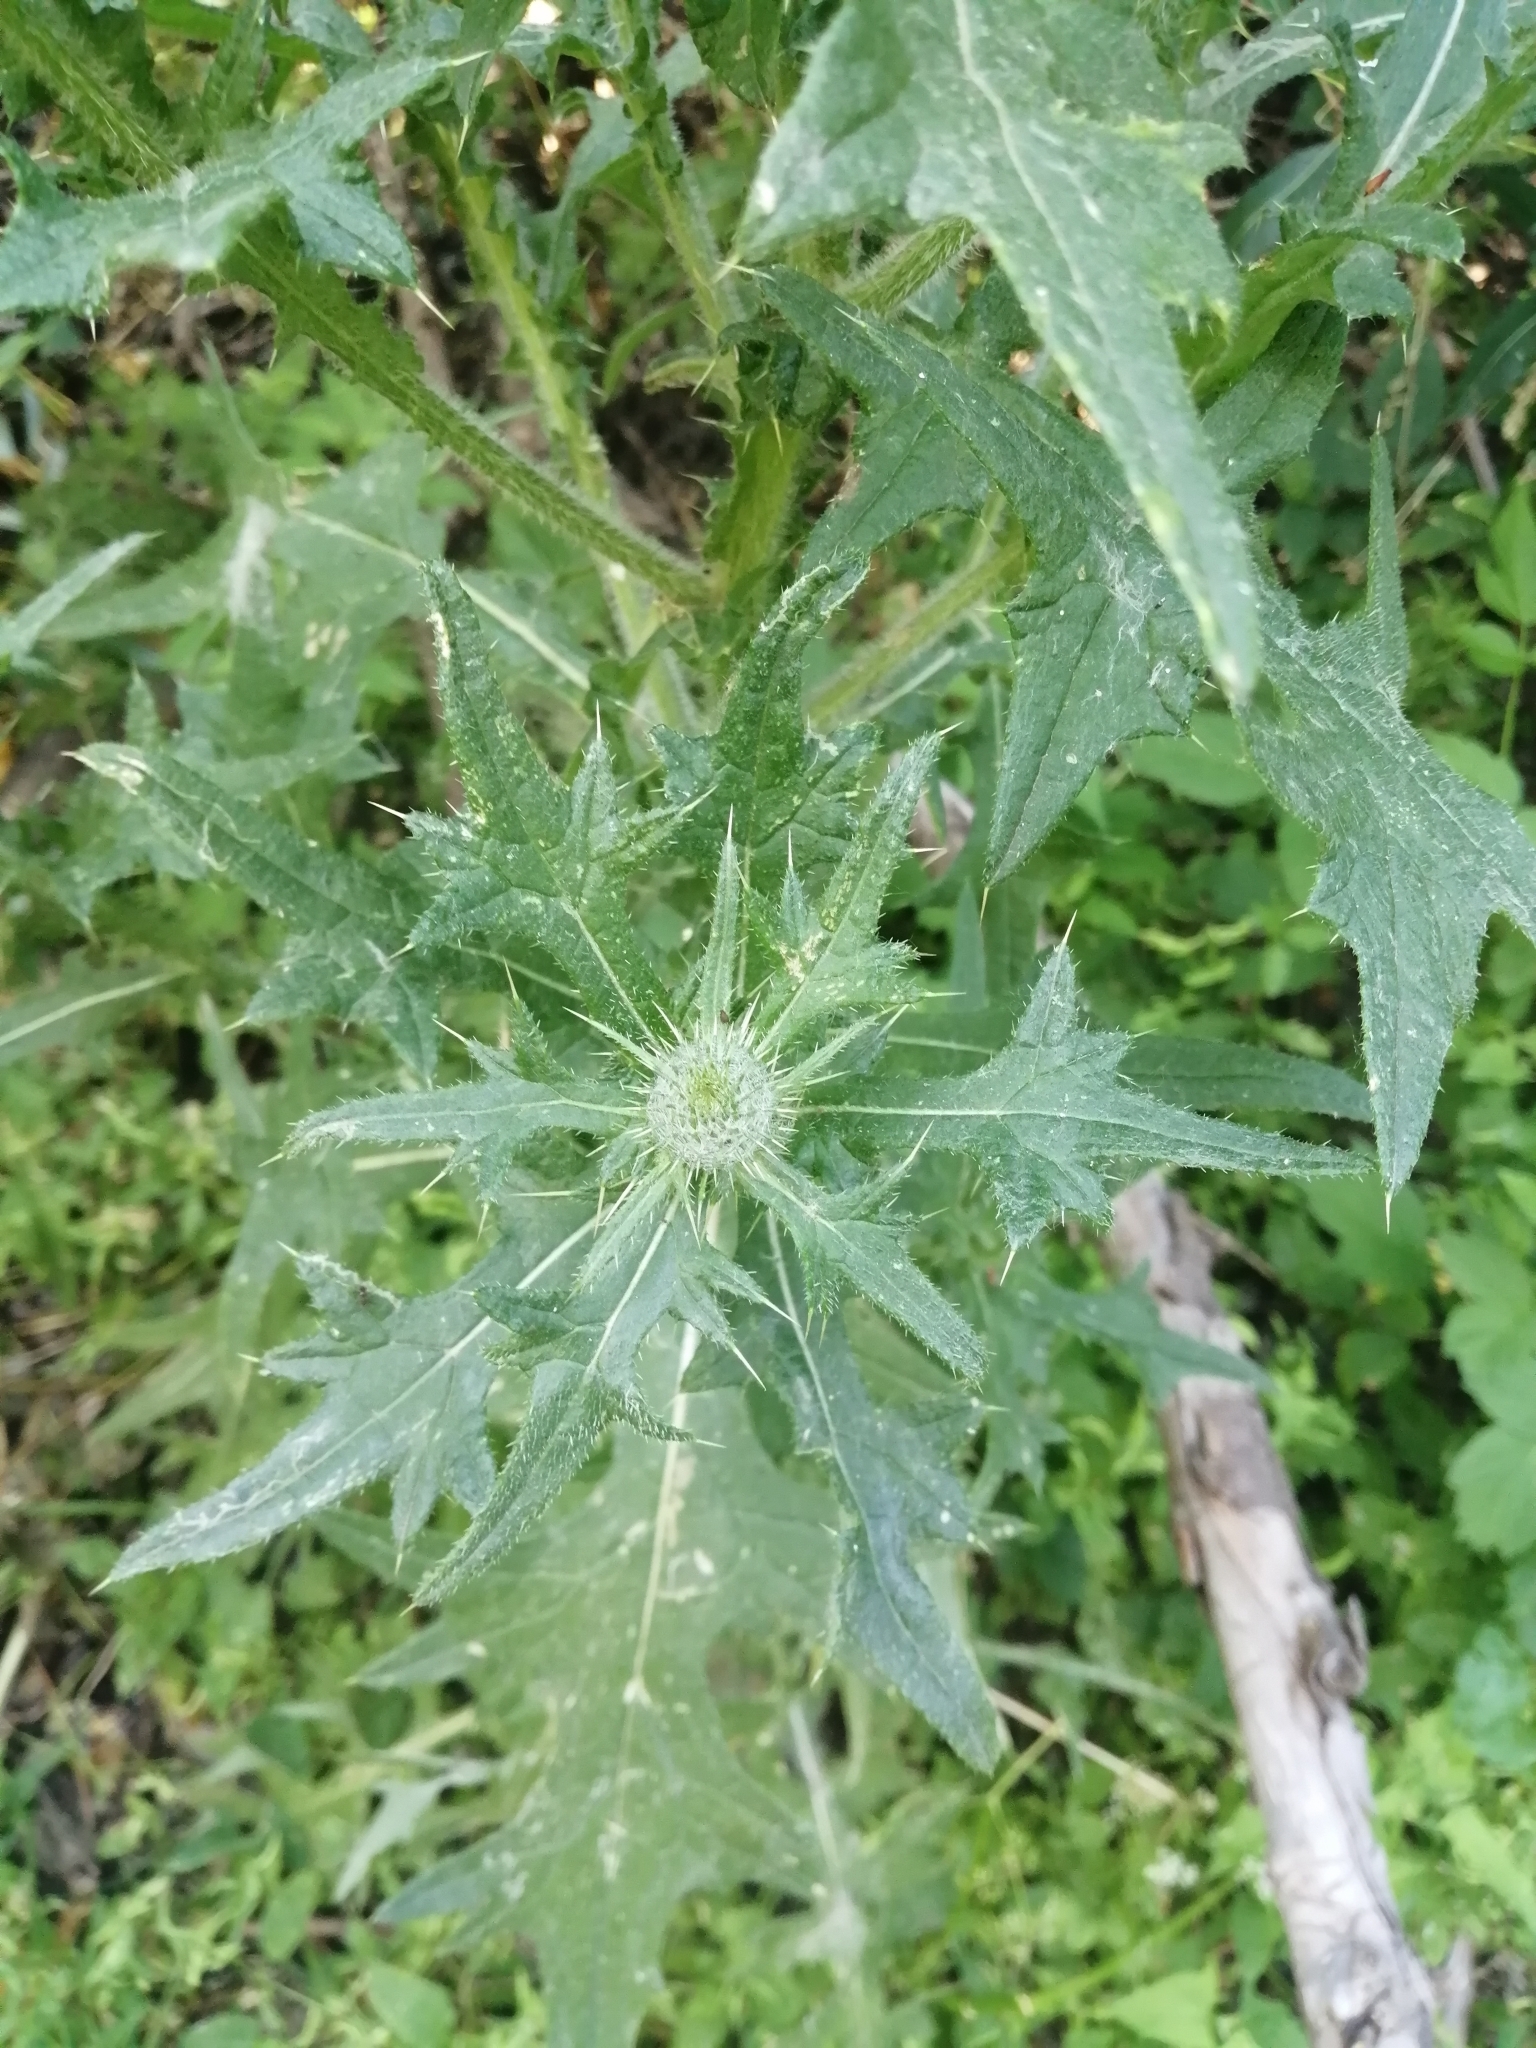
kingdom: Plantae
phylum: Tracheophyta
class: Magnoliopsida
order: Asterales
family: Asteraceae
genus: Cirsium
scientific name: Cirsium vulgare
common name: Bull thistle
